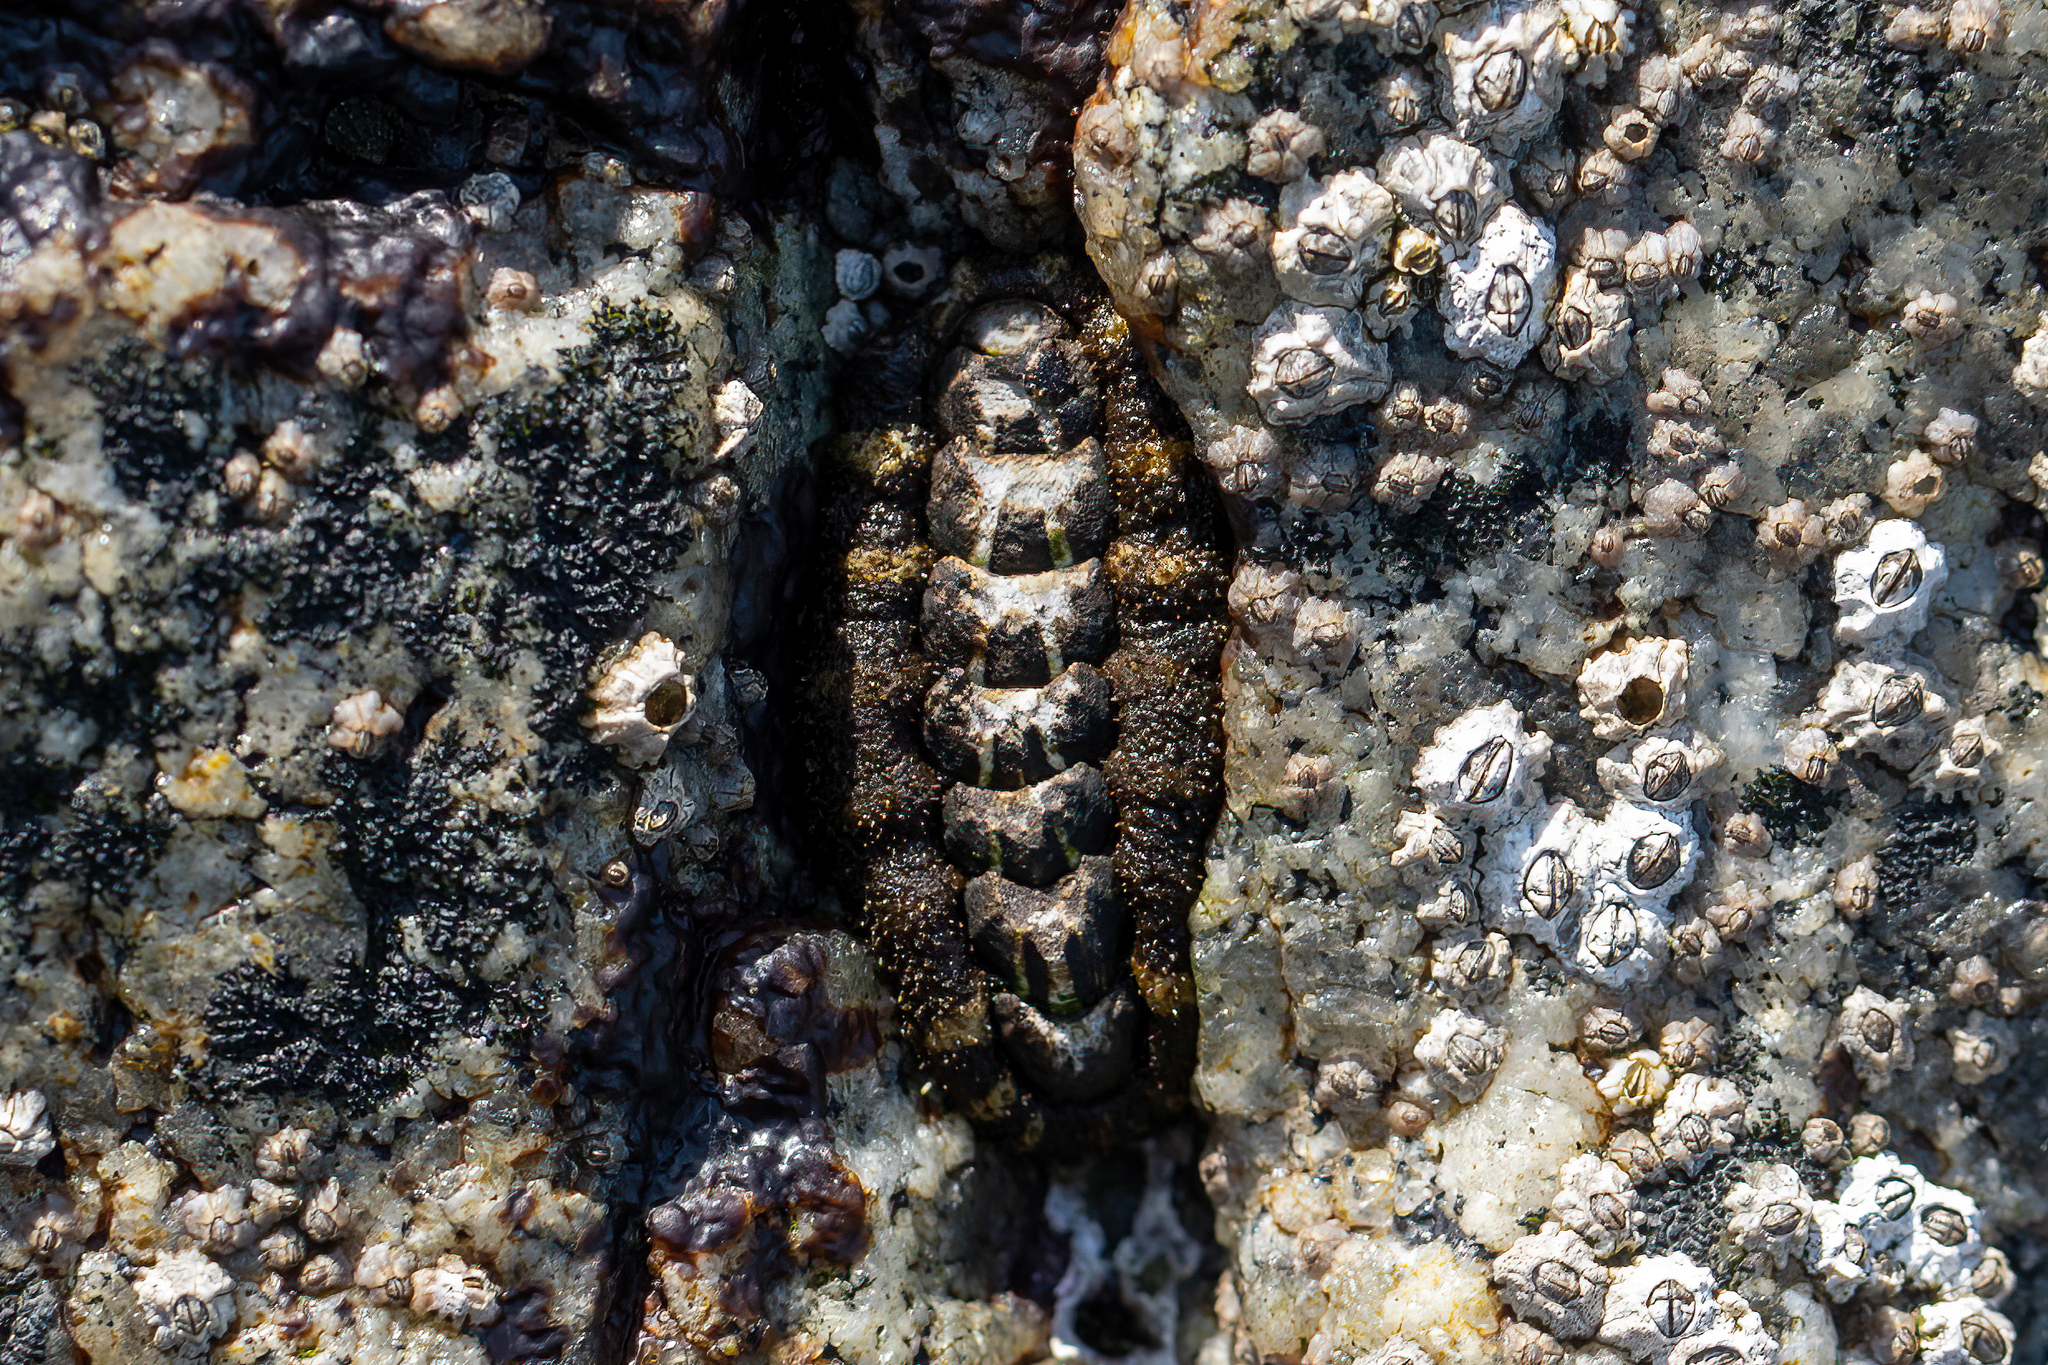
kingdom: Animalia
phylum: Mollusca
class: Polyplacophora
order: Chitonida
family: Tonicellidae
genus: Nuttallina
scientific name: Nuttallina californica
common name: California nuttall chiton
